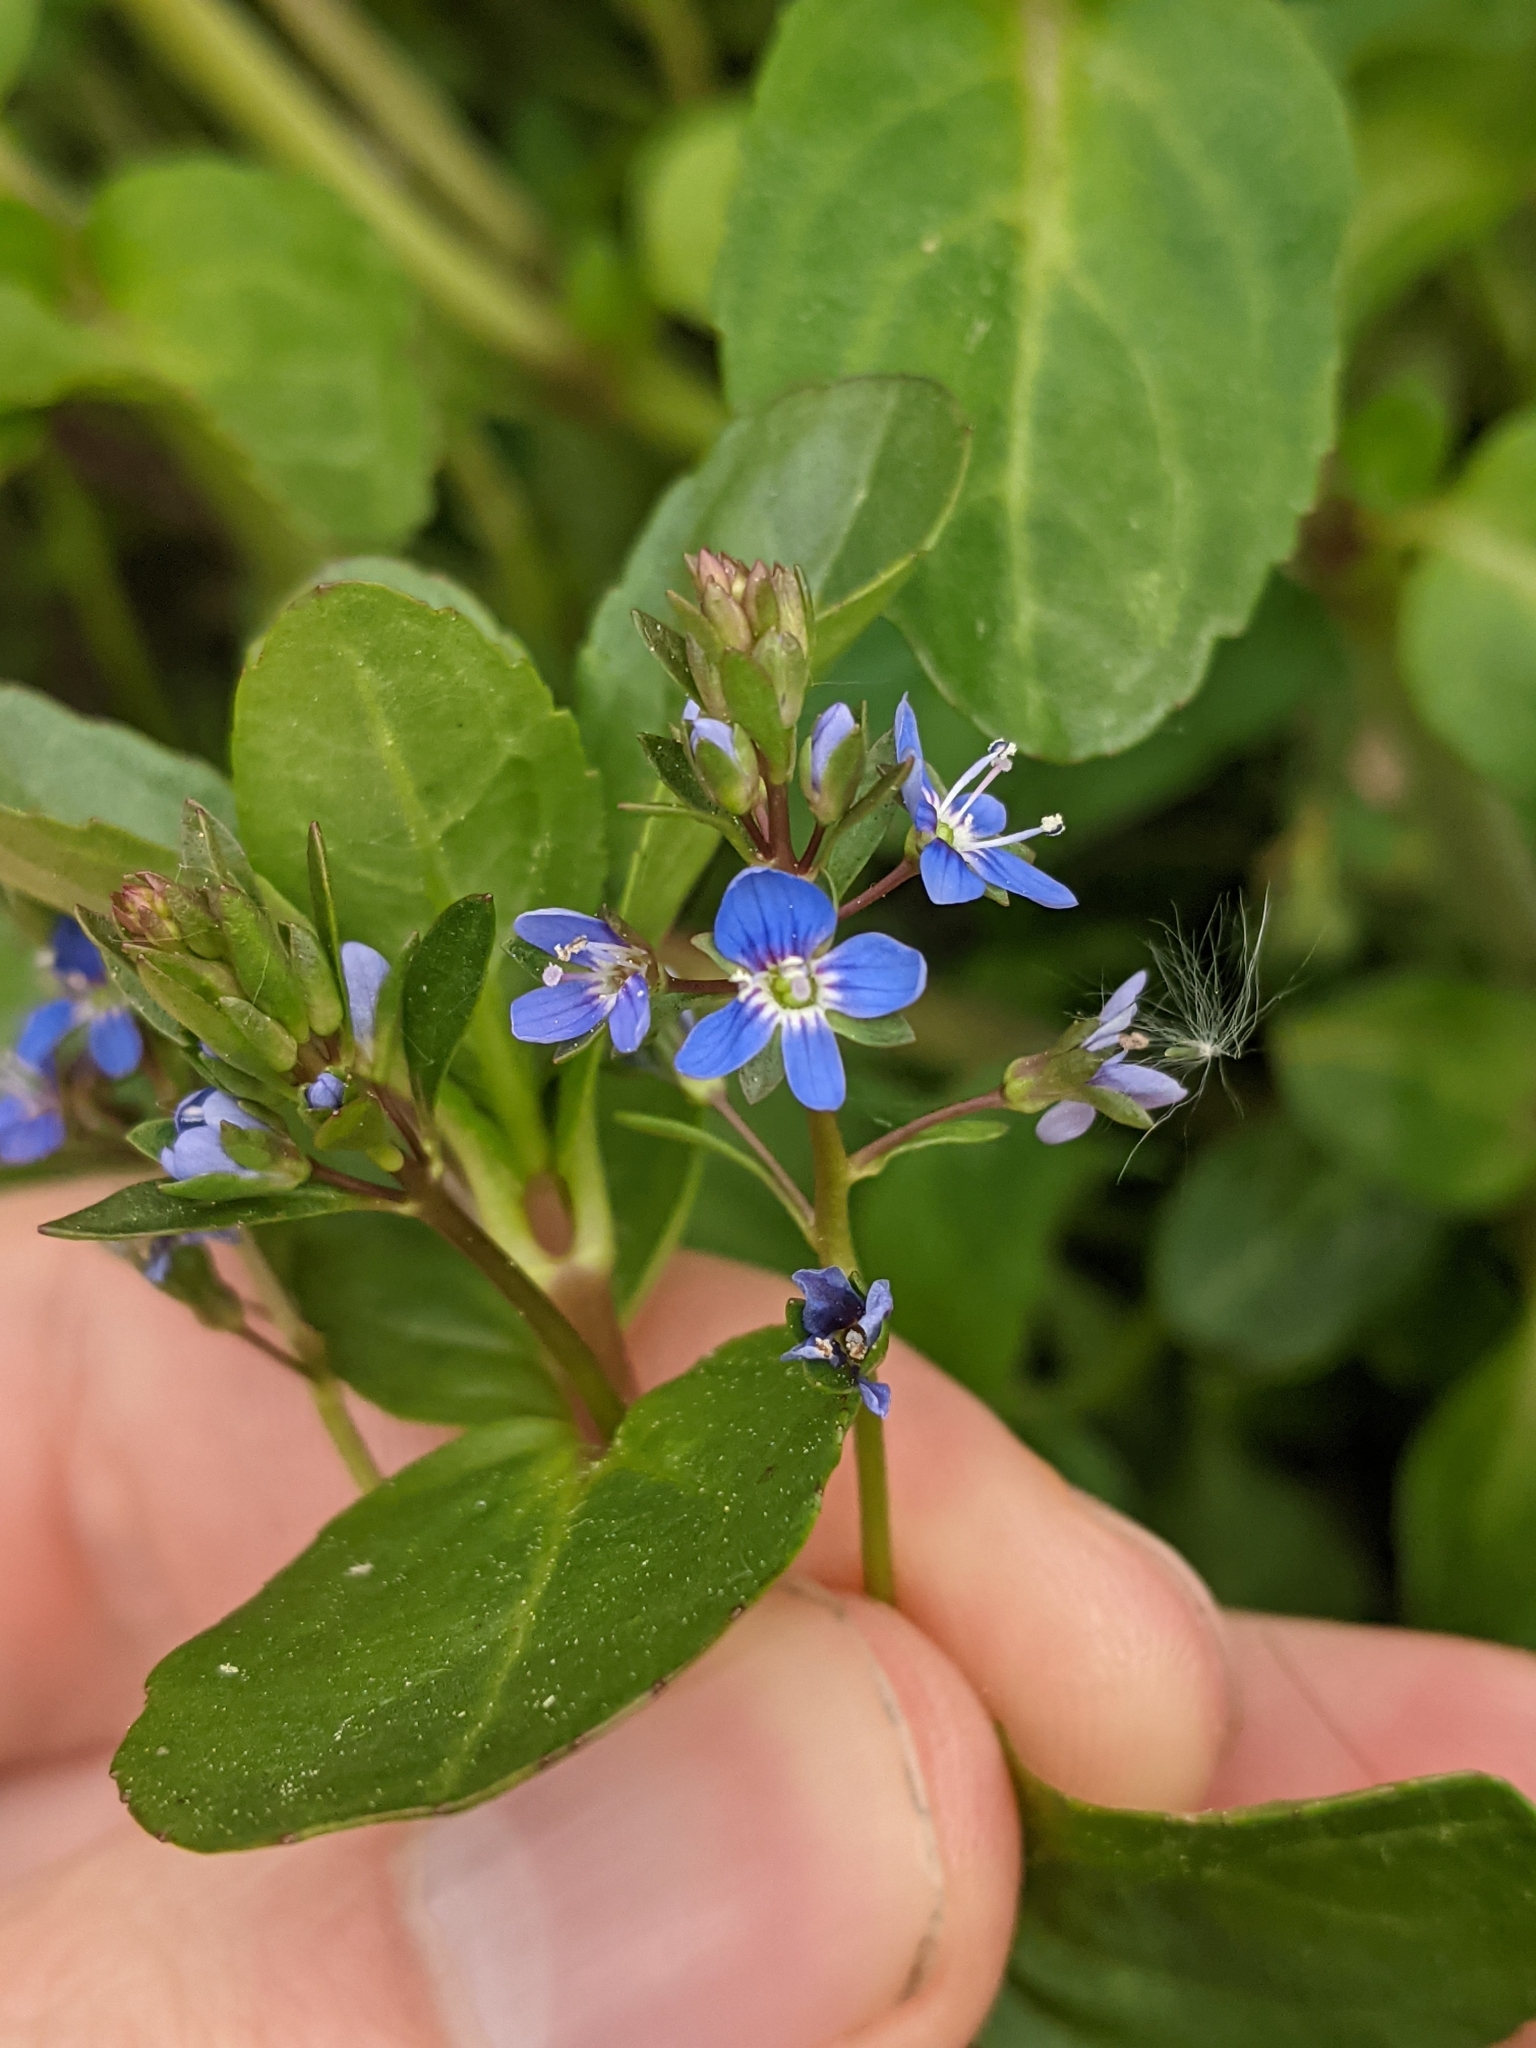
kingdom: Plantae
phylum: Tracheophyta
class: Magnoliopsida
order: Lamiales
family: Plantaginaceae
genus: Veronica
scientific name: Veronica beccabunga
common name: Brooklime
